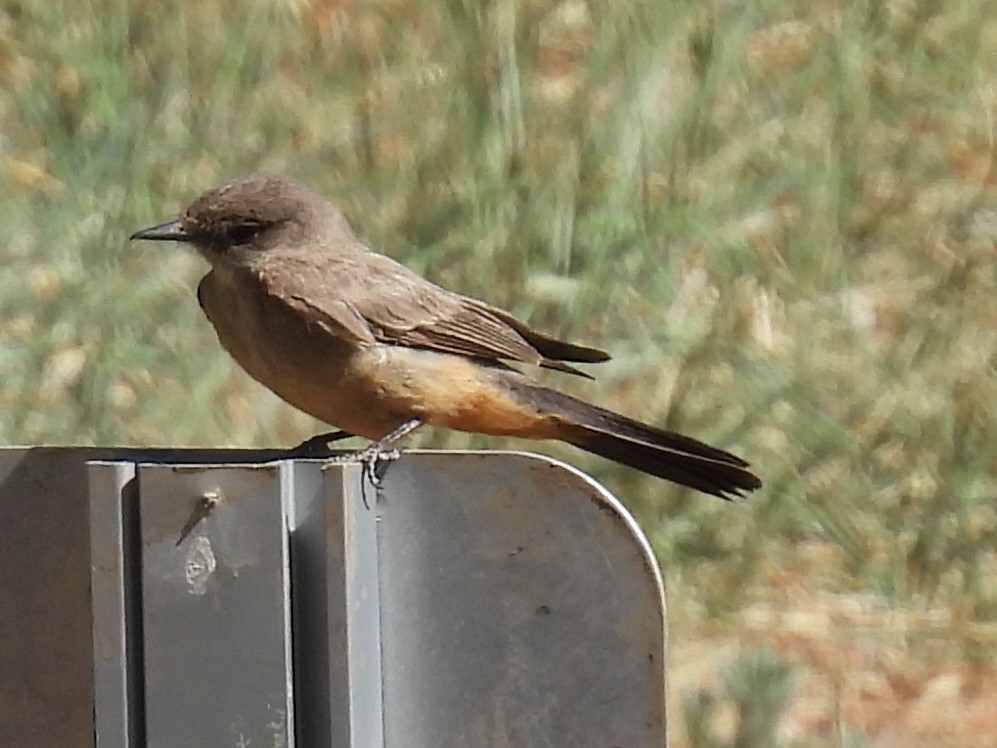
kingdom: Animalia
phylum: Chordata
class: Aves
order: Passeriformes
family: Tyrannidae
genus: Sayornis
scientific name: Sayornis saya
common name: Say's phoebe
